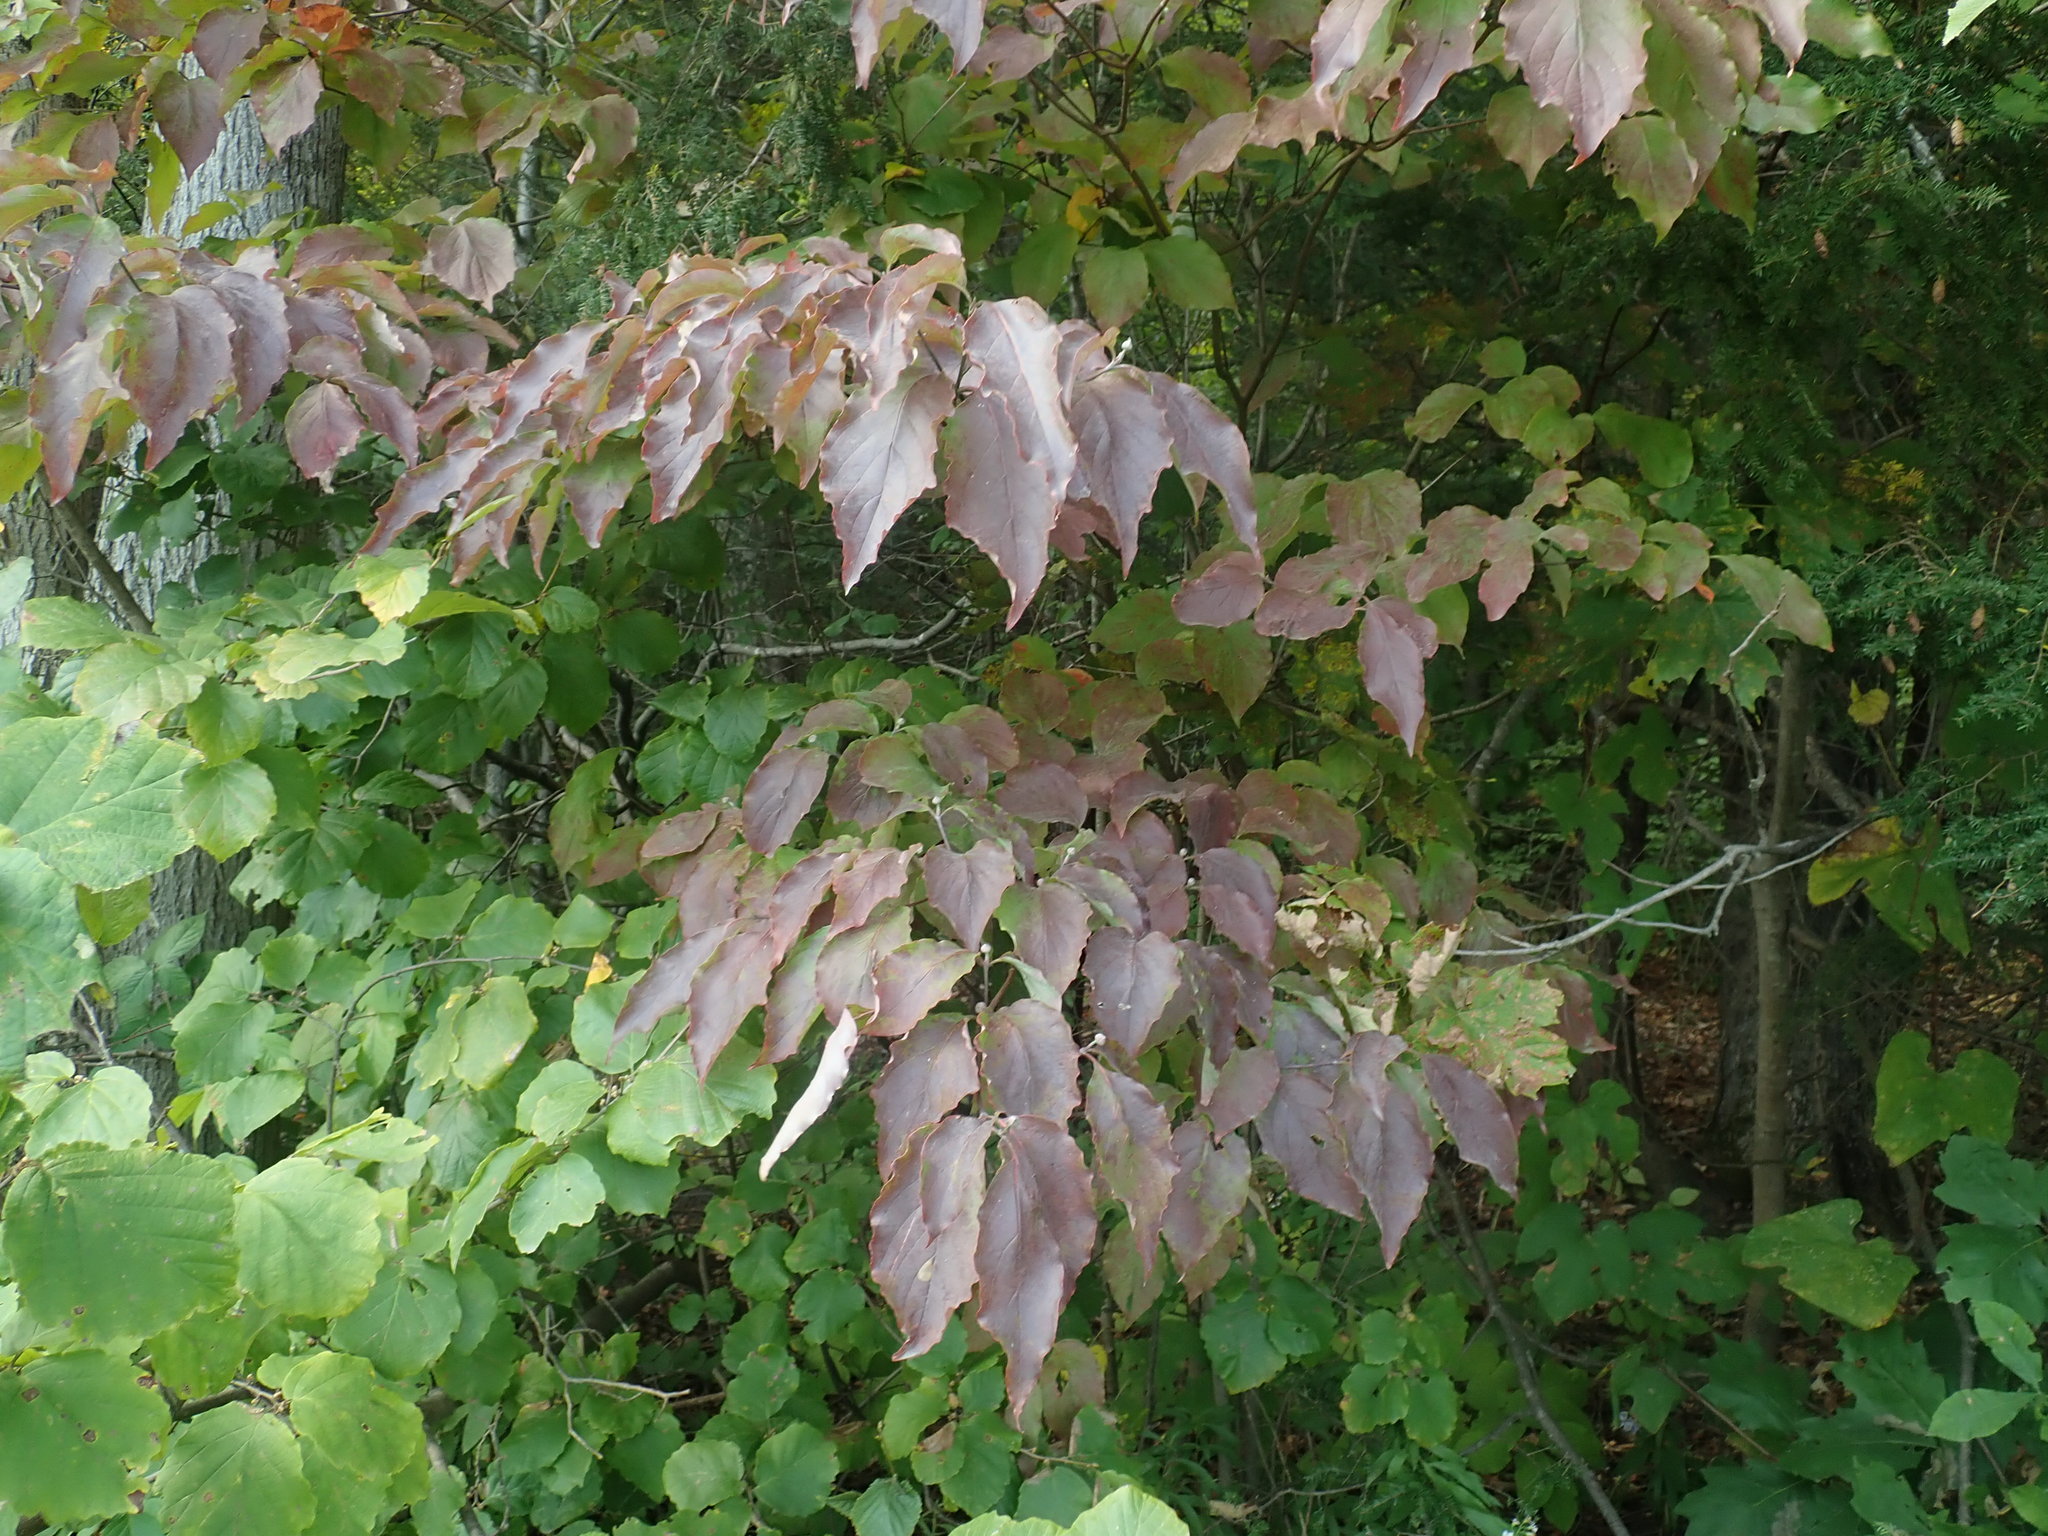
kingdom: Plantae
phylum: Tracheophyta
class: Magnoliopsida
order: Cornales
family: Cornaceae
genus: Cornus
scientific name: Cornus florida
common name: Flowering dogwood
